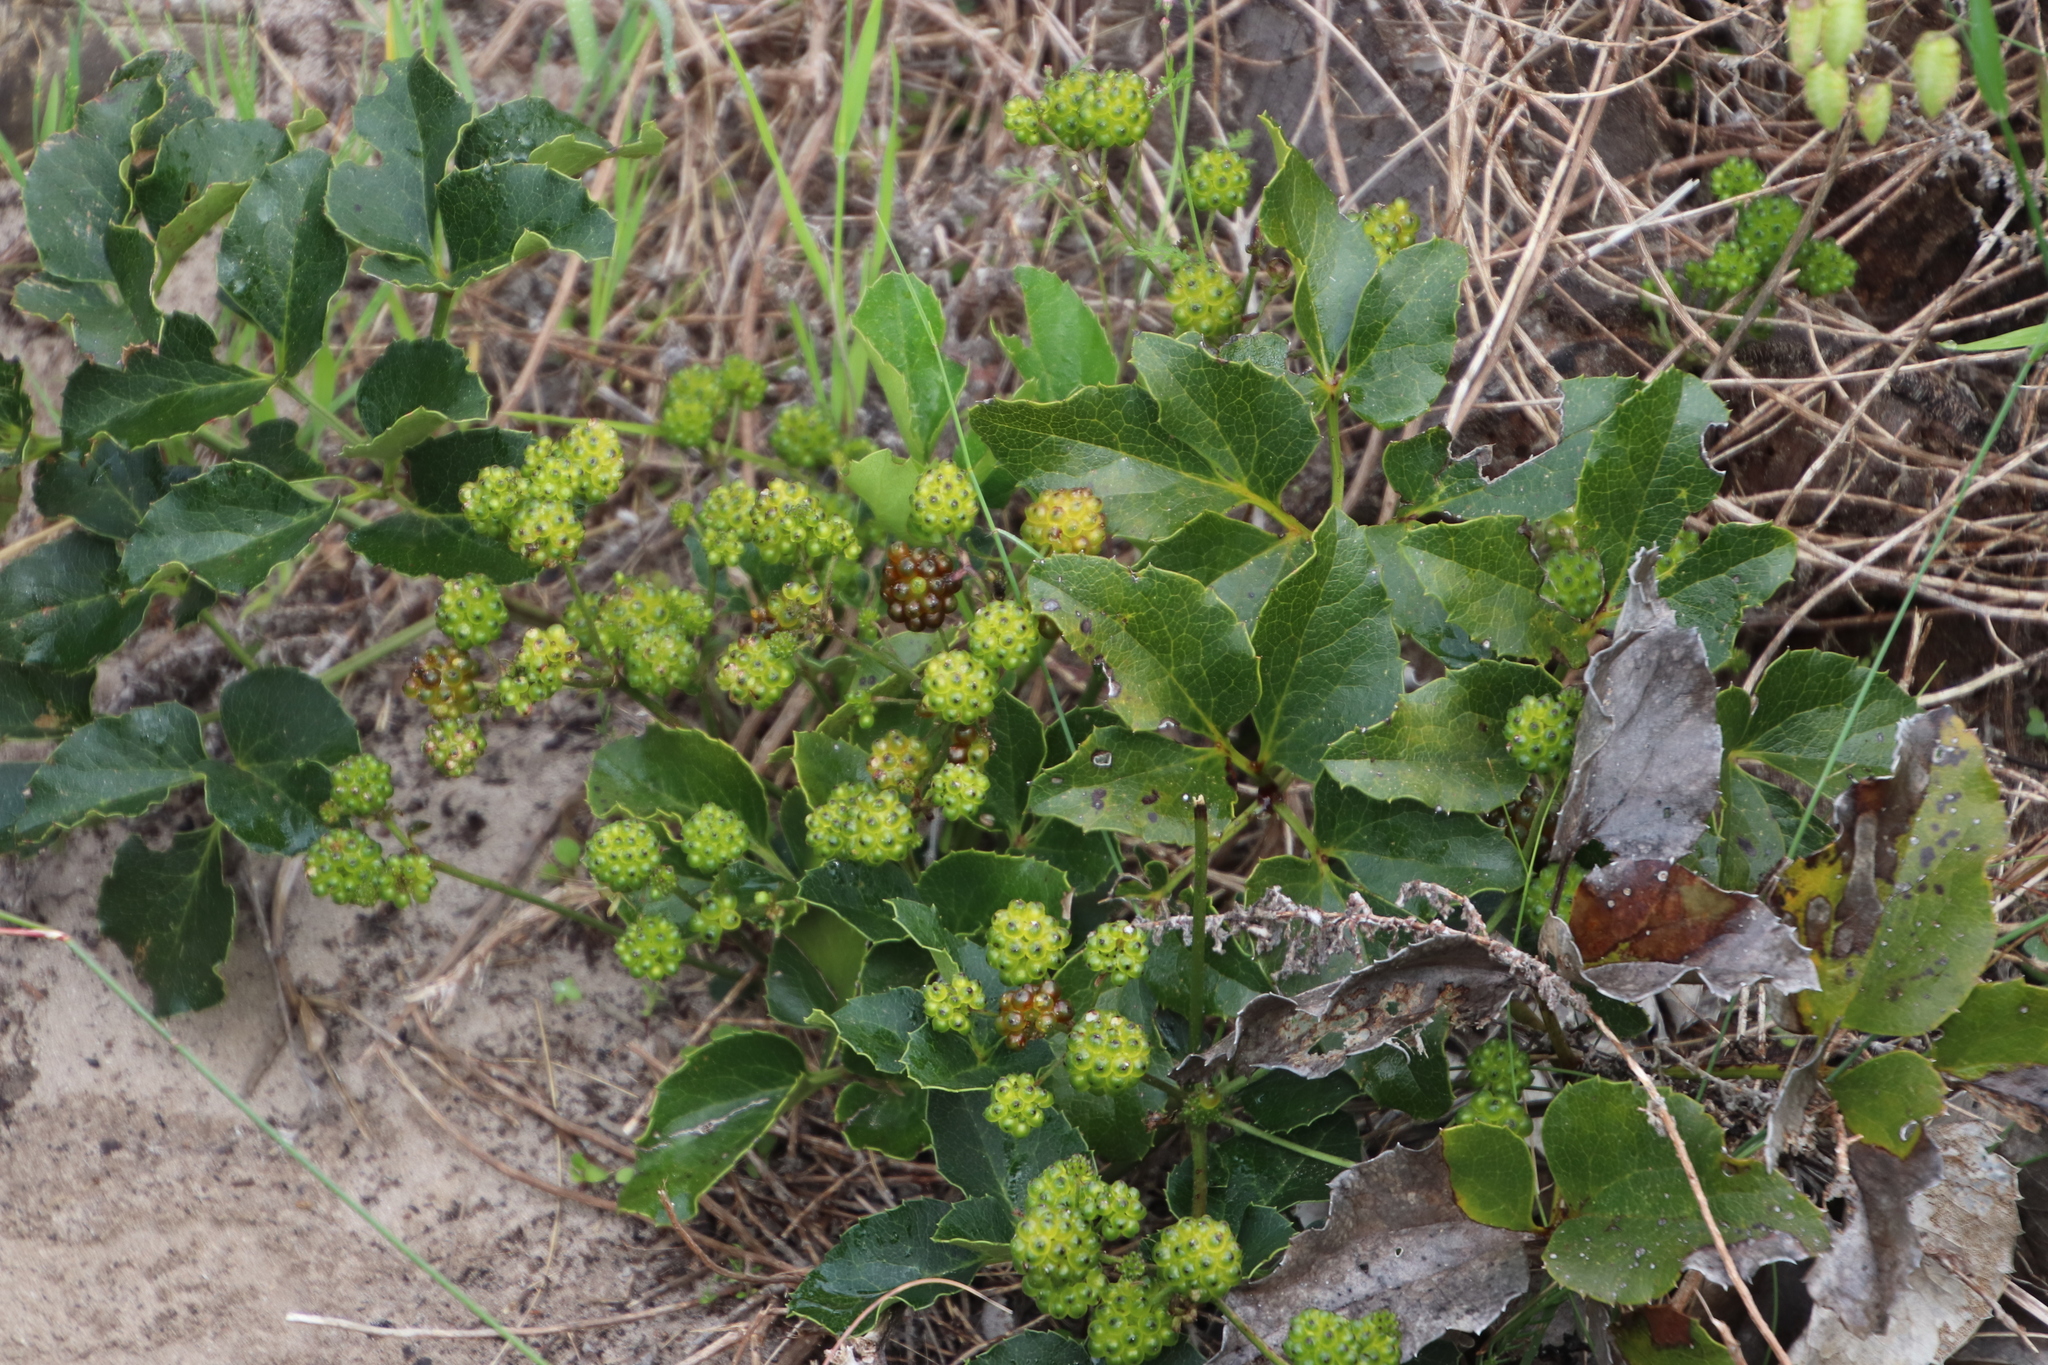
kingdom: Plantae
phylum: Tracheophyta
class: Magnoliopsida
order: Ranunculales
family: Ranunculaceae
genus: Knowltonia
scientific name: Knowltonia vesicatoria
